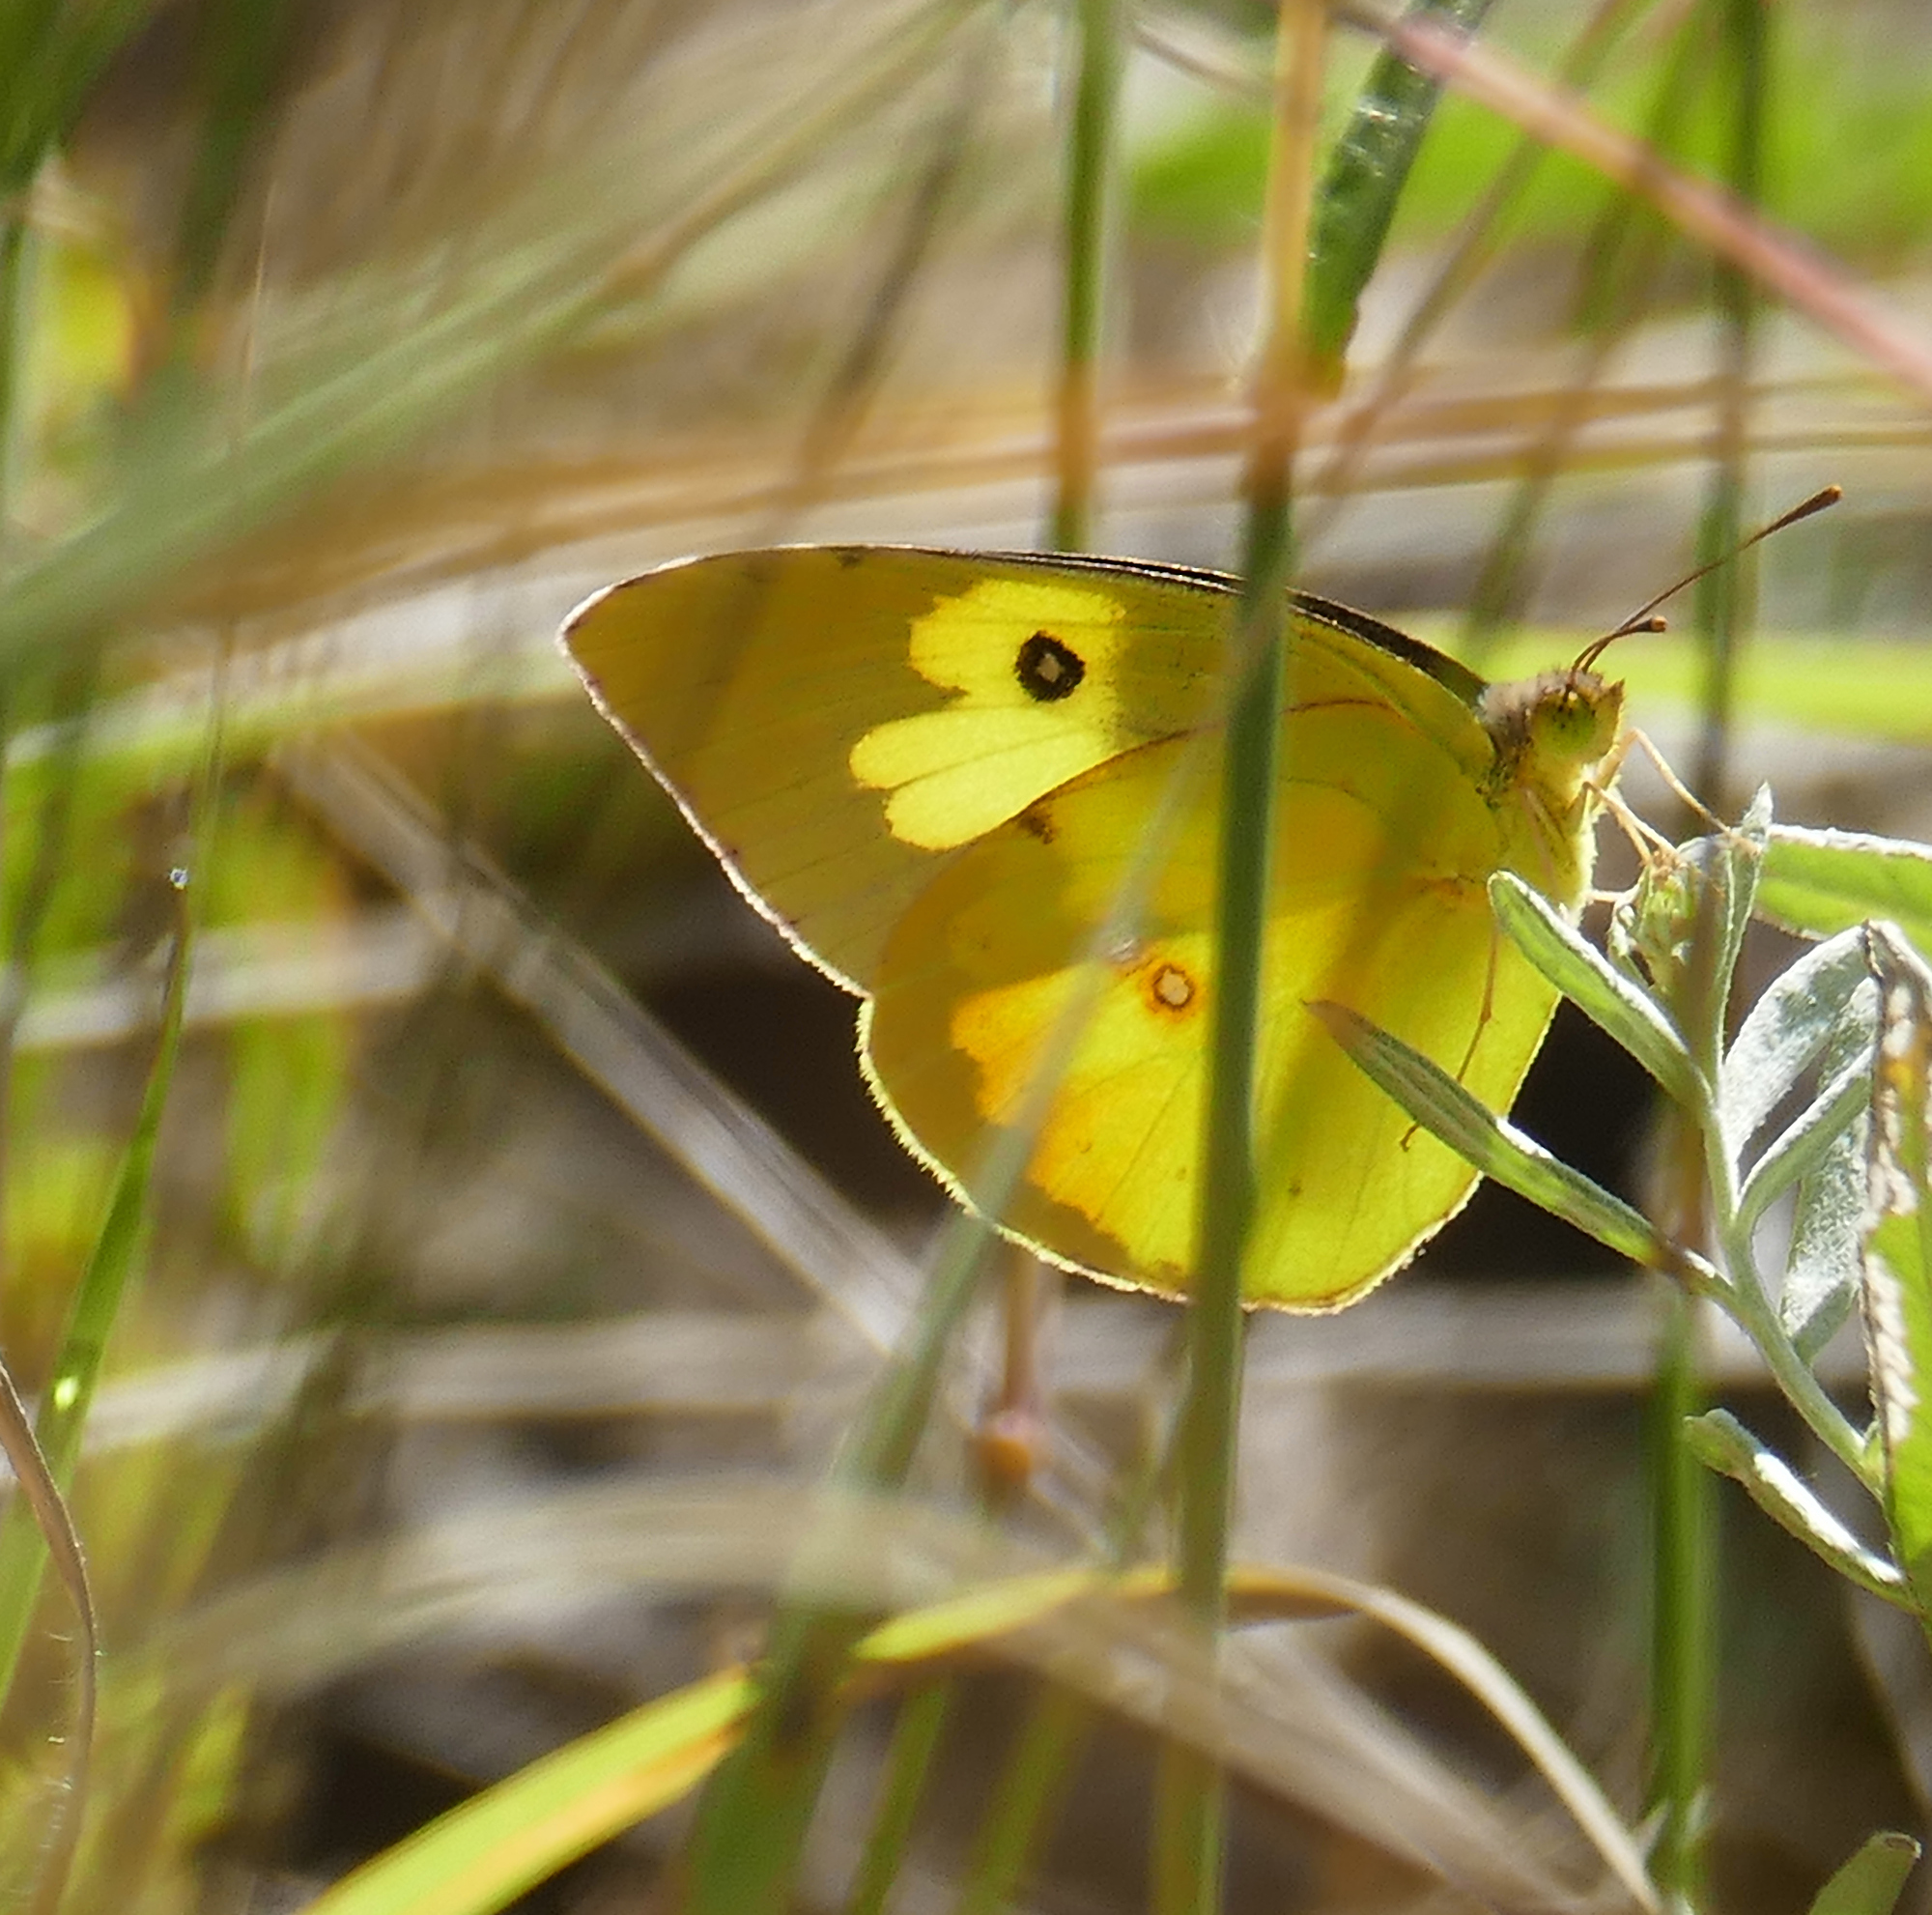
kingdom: Animalia
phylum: Arthropoda
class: Insecta
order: Lepidoptera
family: Pieridae
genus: Zerene
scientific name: Zerene cesonia
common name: Southern dogface
